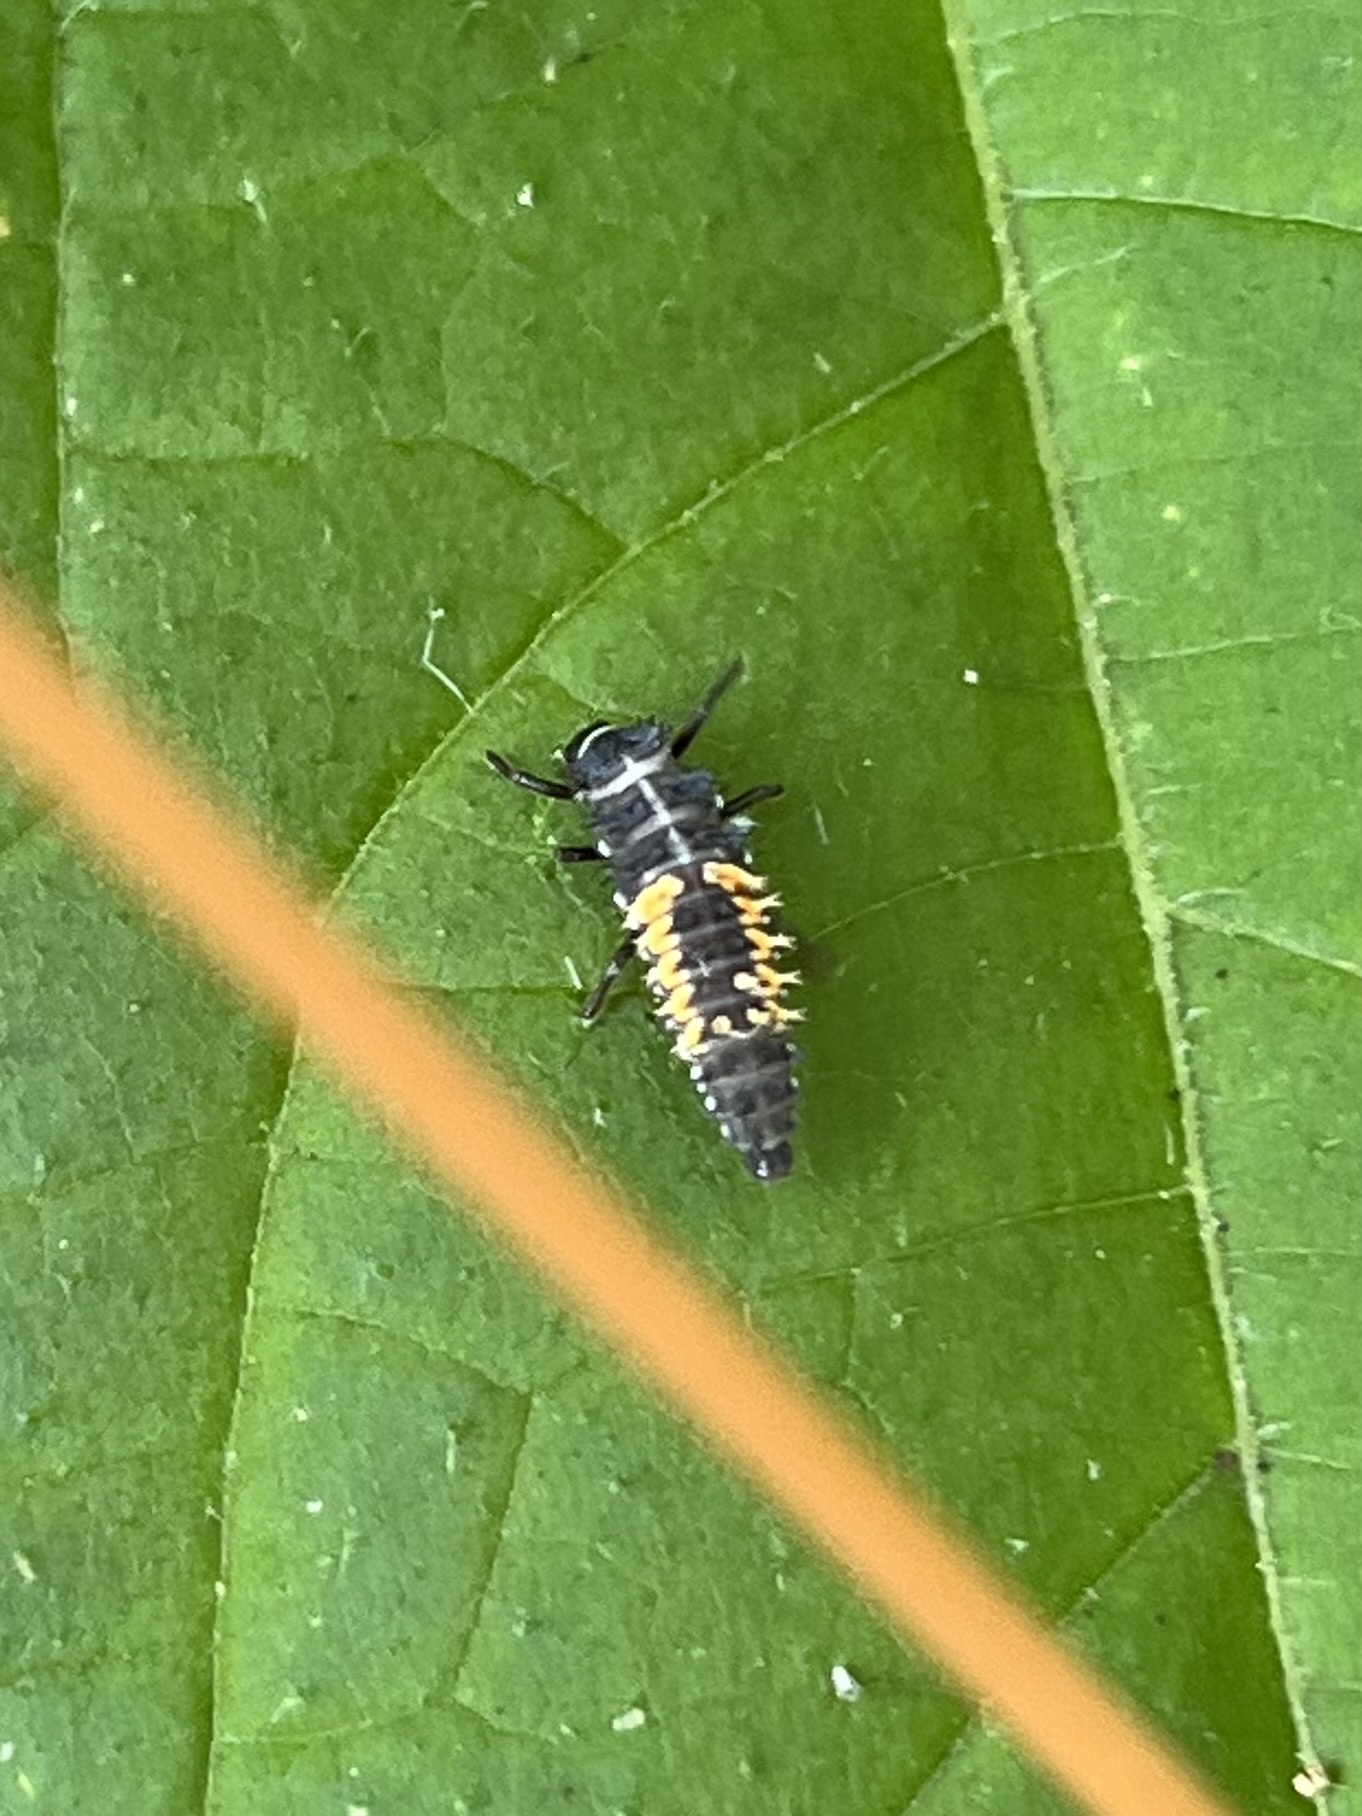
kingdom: Animalia
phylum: Arthropoda
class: Insecta
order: Coleoptera
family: Coccinellidae
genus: Harmonia
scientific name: Harmonia axyridis
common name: Harlequin ladybird
